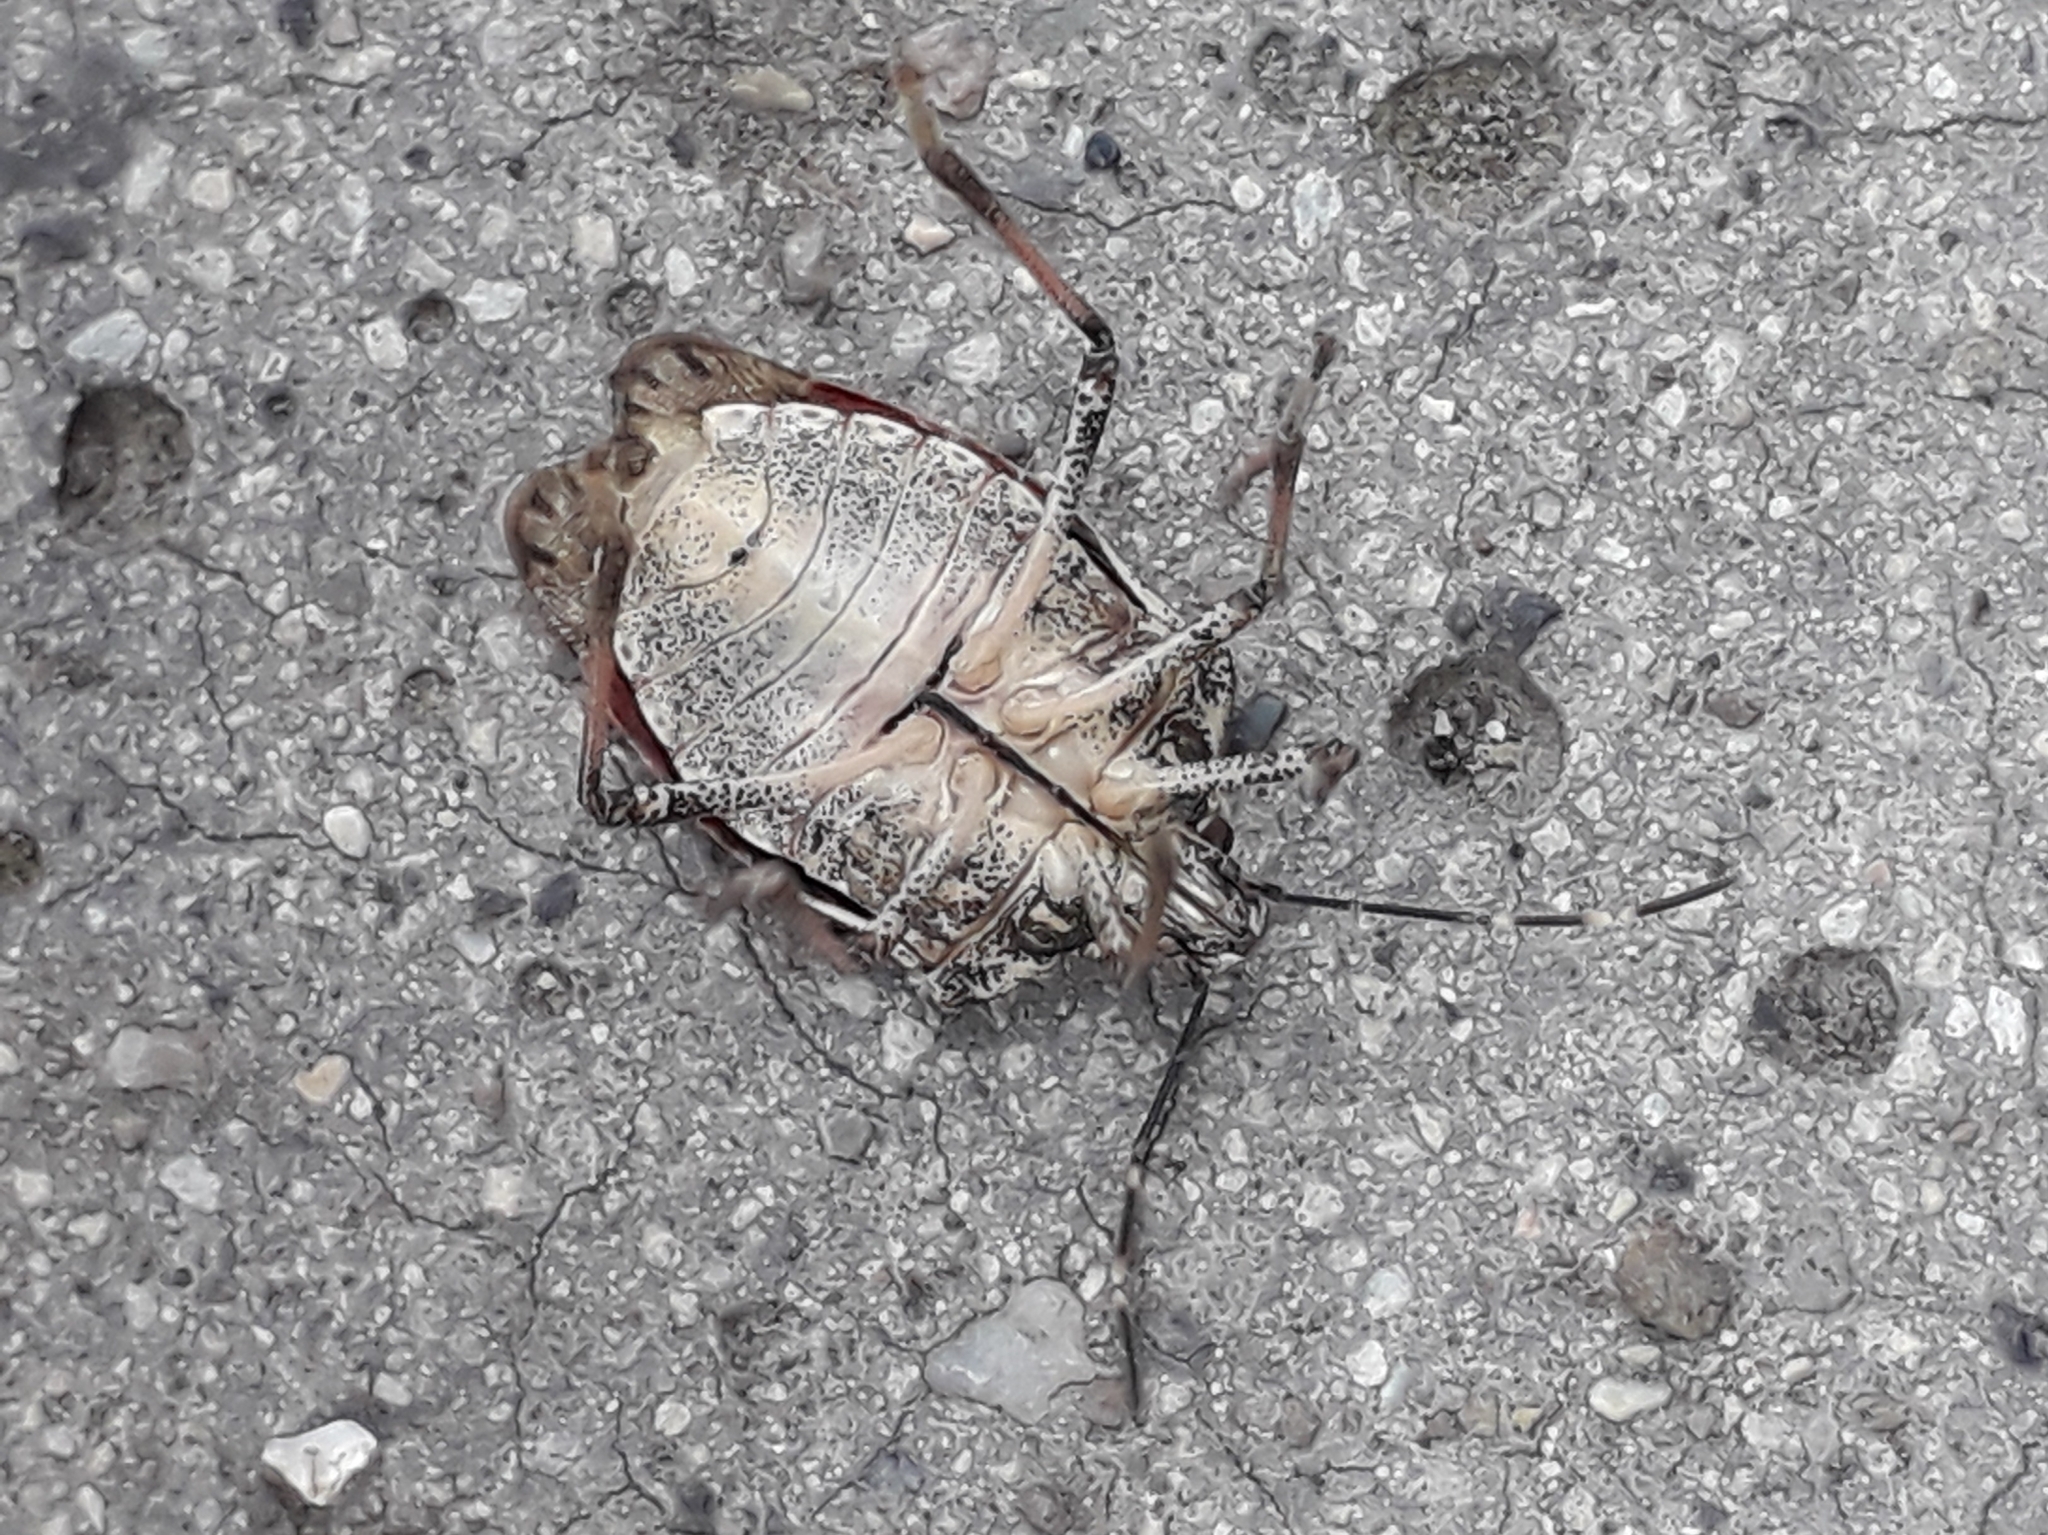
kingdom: Animalia
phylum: Arthropoda
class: Insecta
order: Hemiptera
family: Pentatomidae
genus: Halyomorpha
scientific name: Halyomorpha halys
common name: Brown marmorated stink bug
